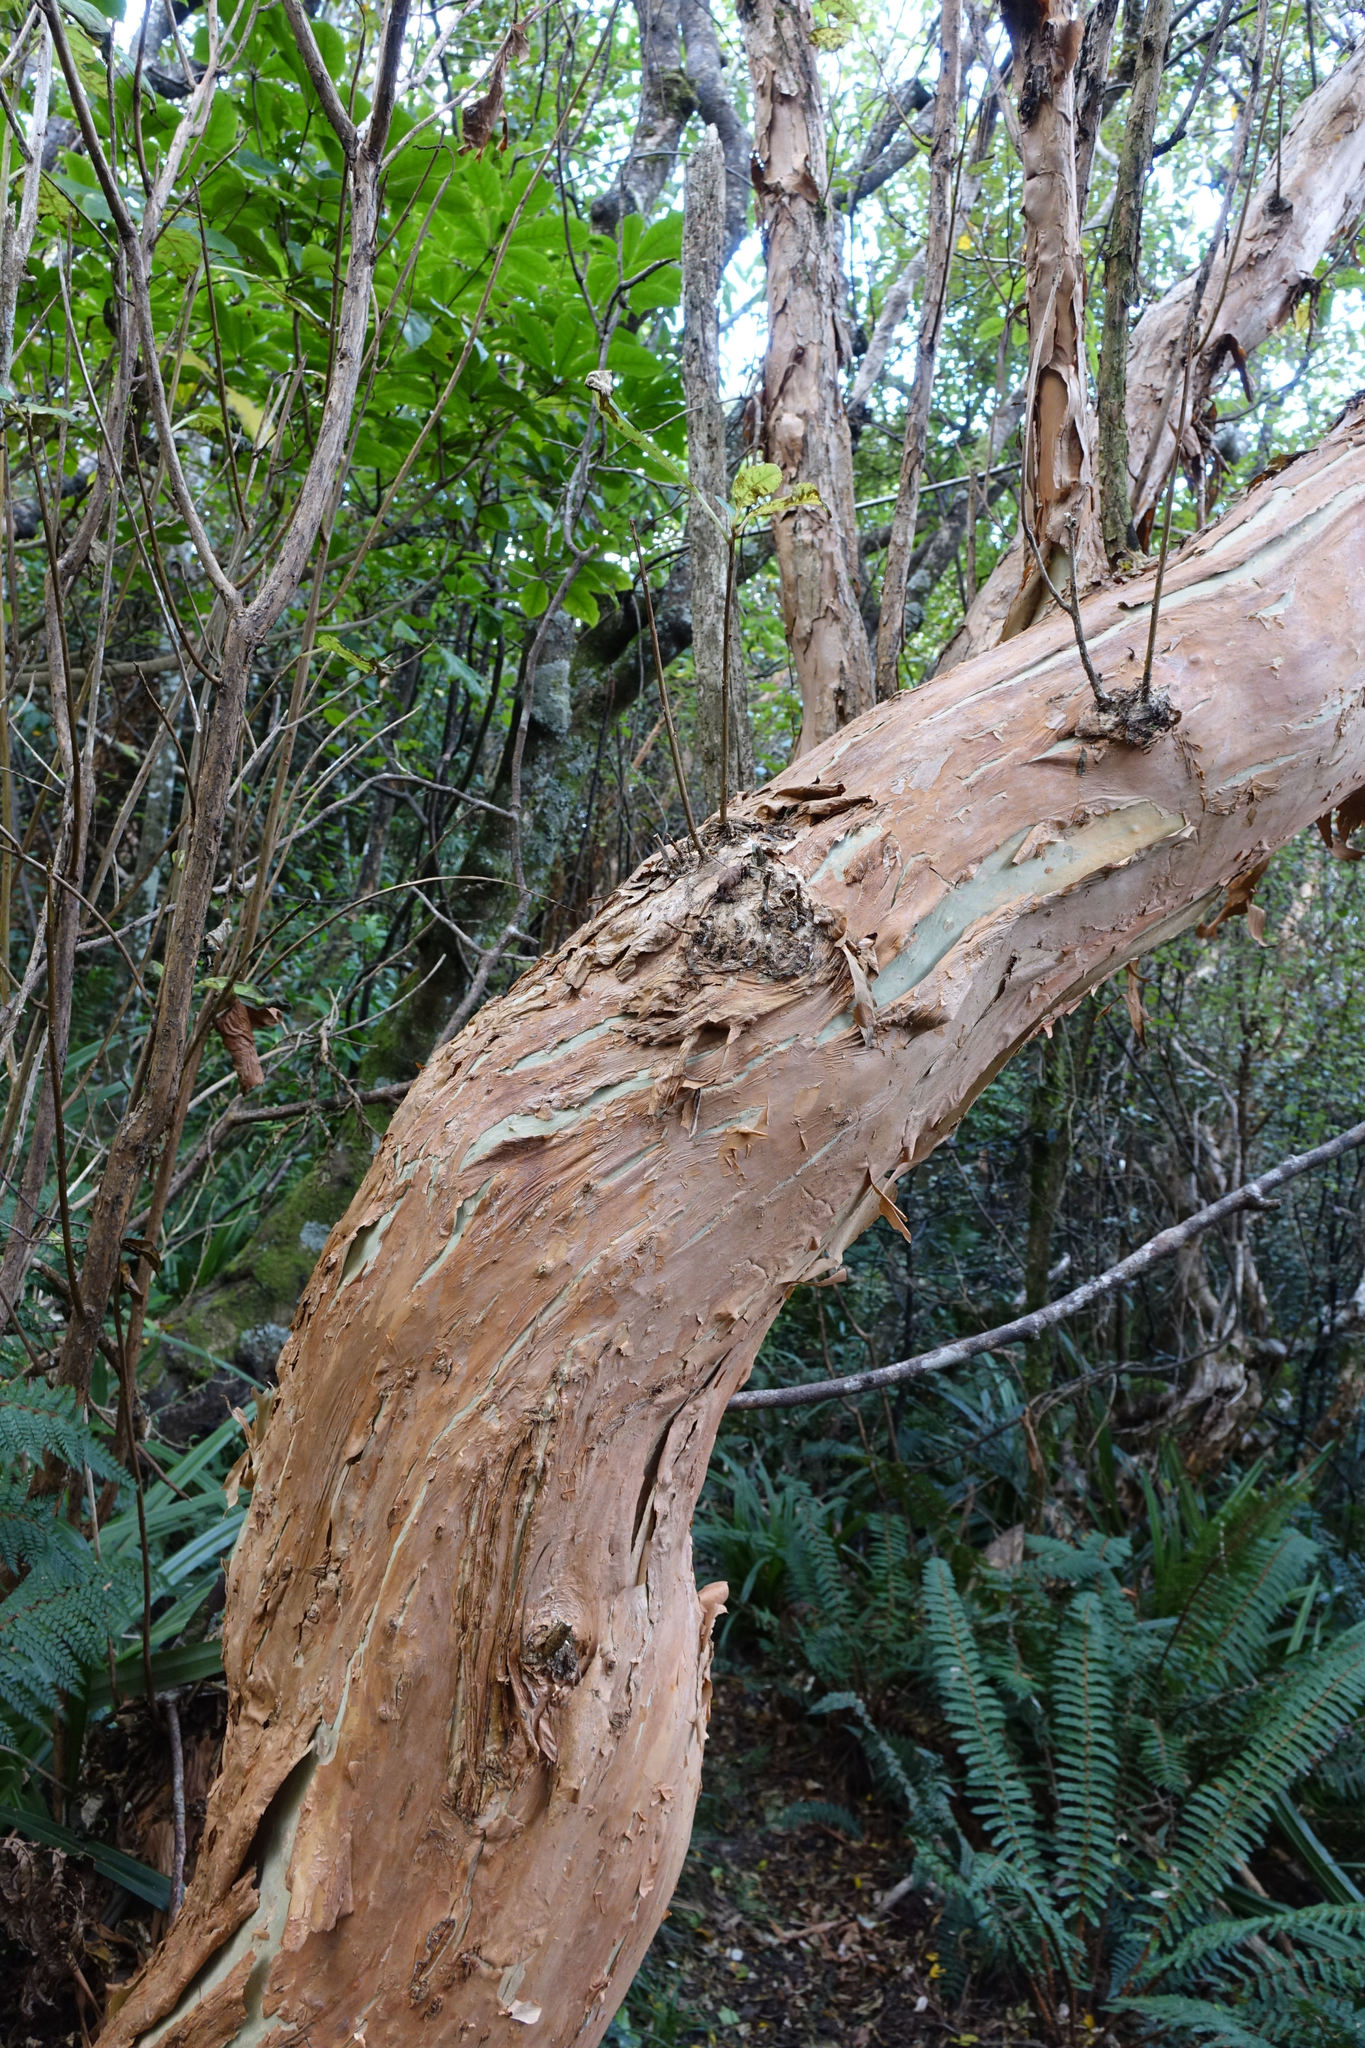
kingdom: Plantae
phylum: Tracheophyta
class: Magnoliopsida
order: Myrtales
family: Onagraceae
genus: Fuchsia
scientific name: Fuchsia excorticata
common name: Tree fuchsia
